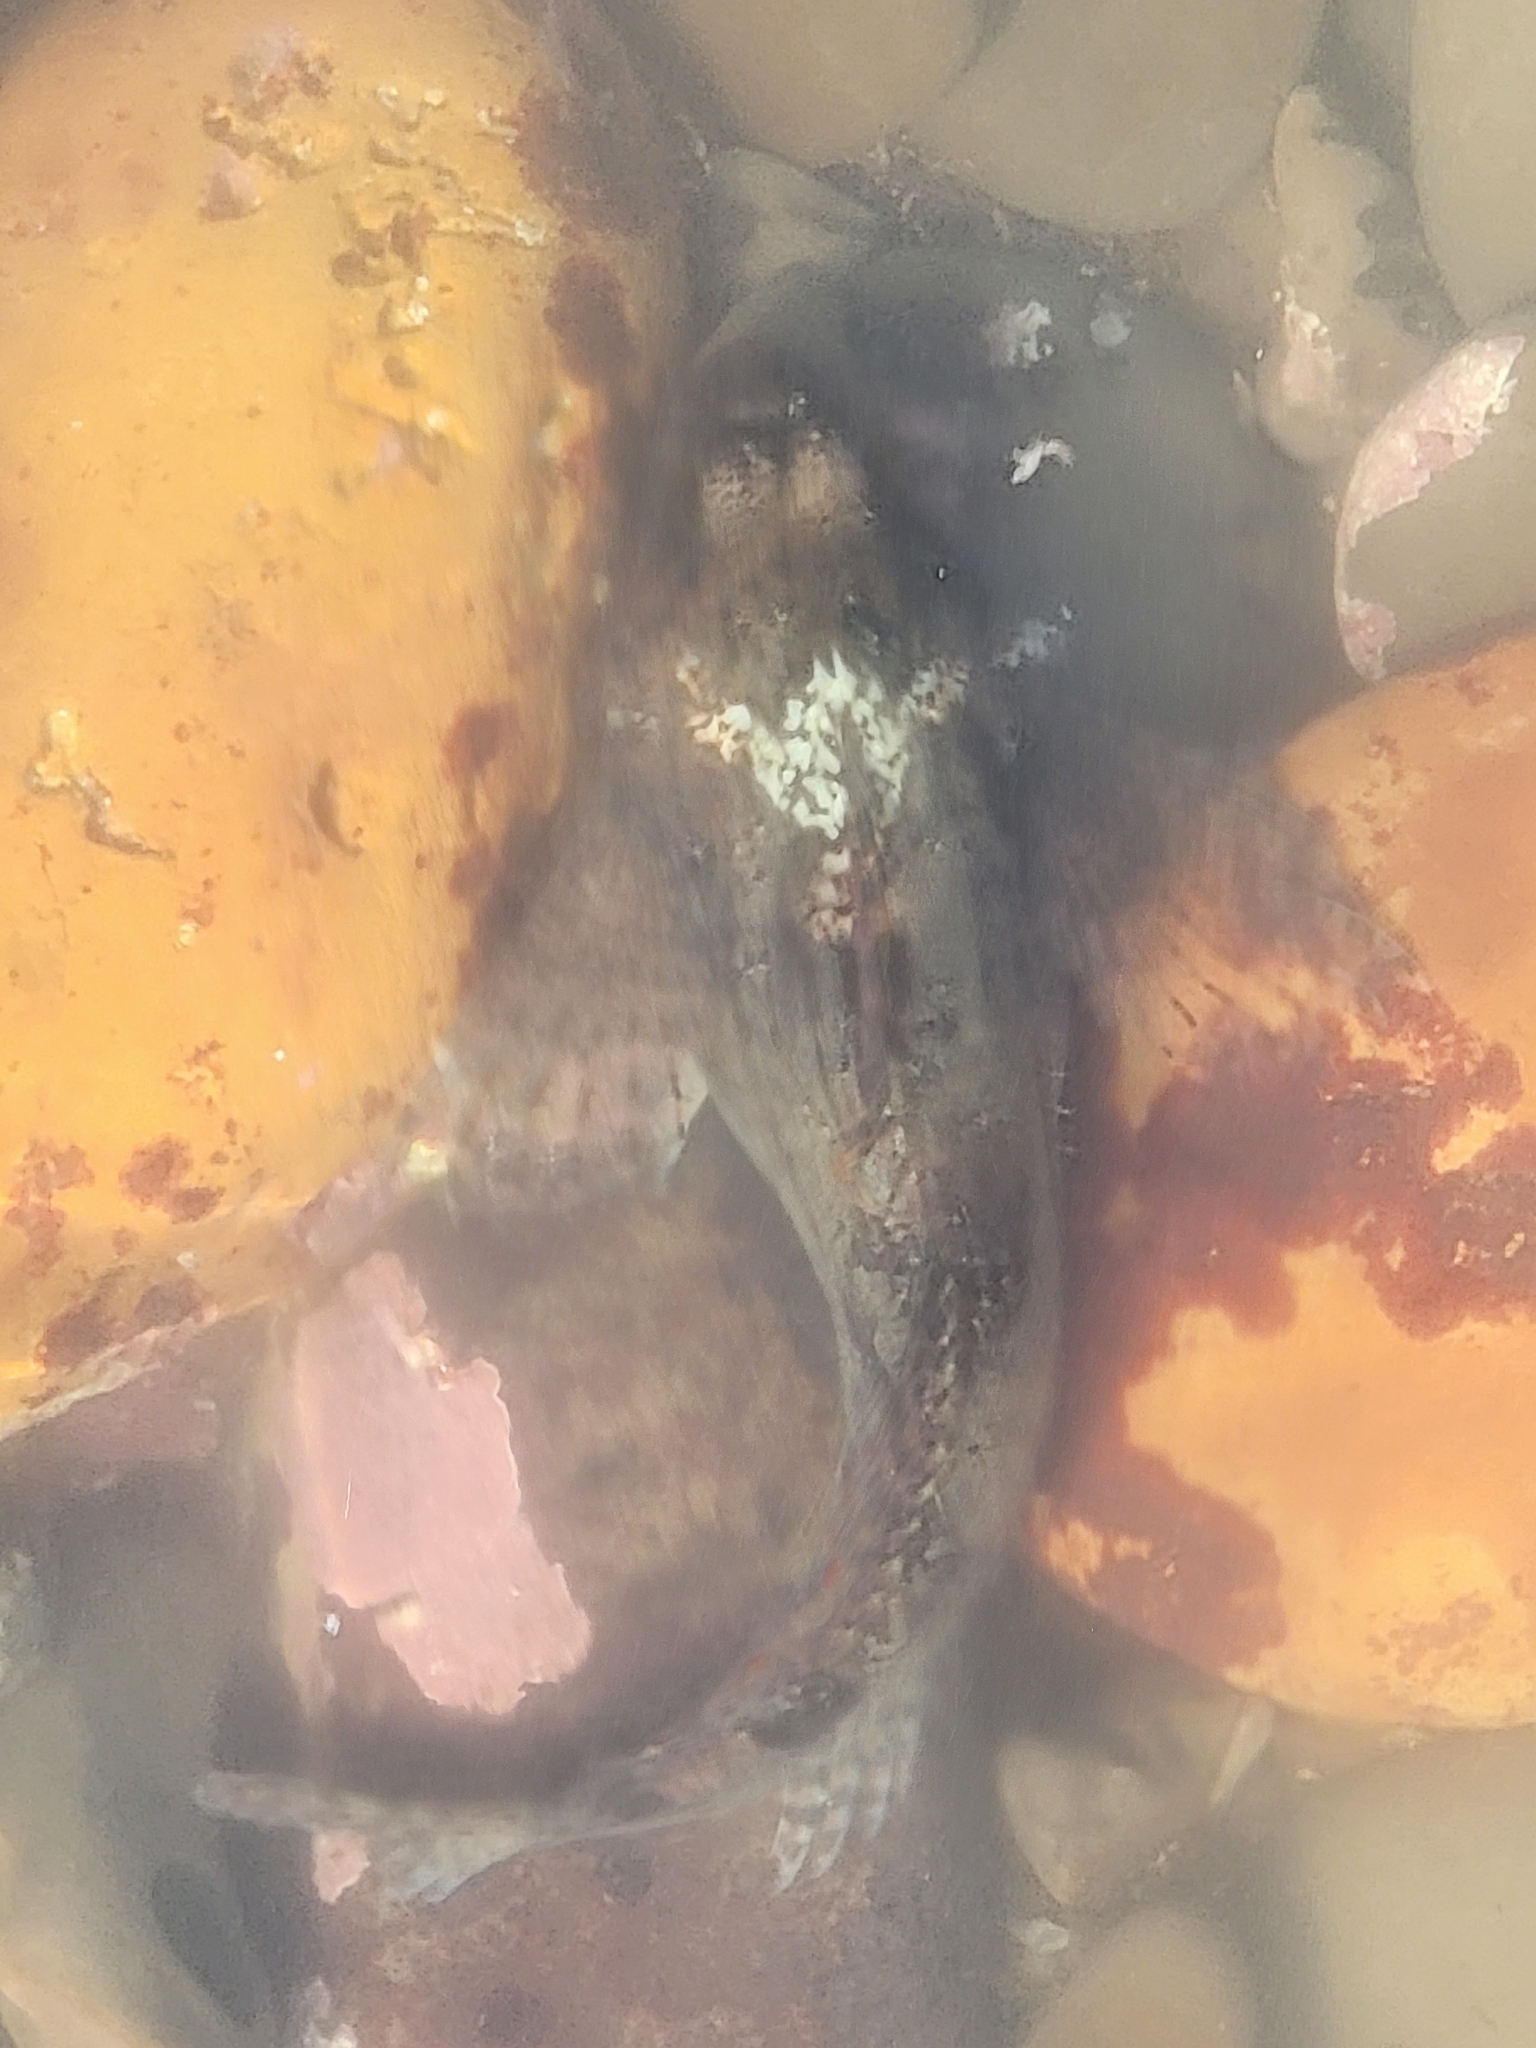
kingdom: Animalia
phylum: Chordata
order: Scorpaeniformes
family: Cottidae
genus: Clinocottus
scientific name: Clinocottus analis
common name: Woolly sculpin
